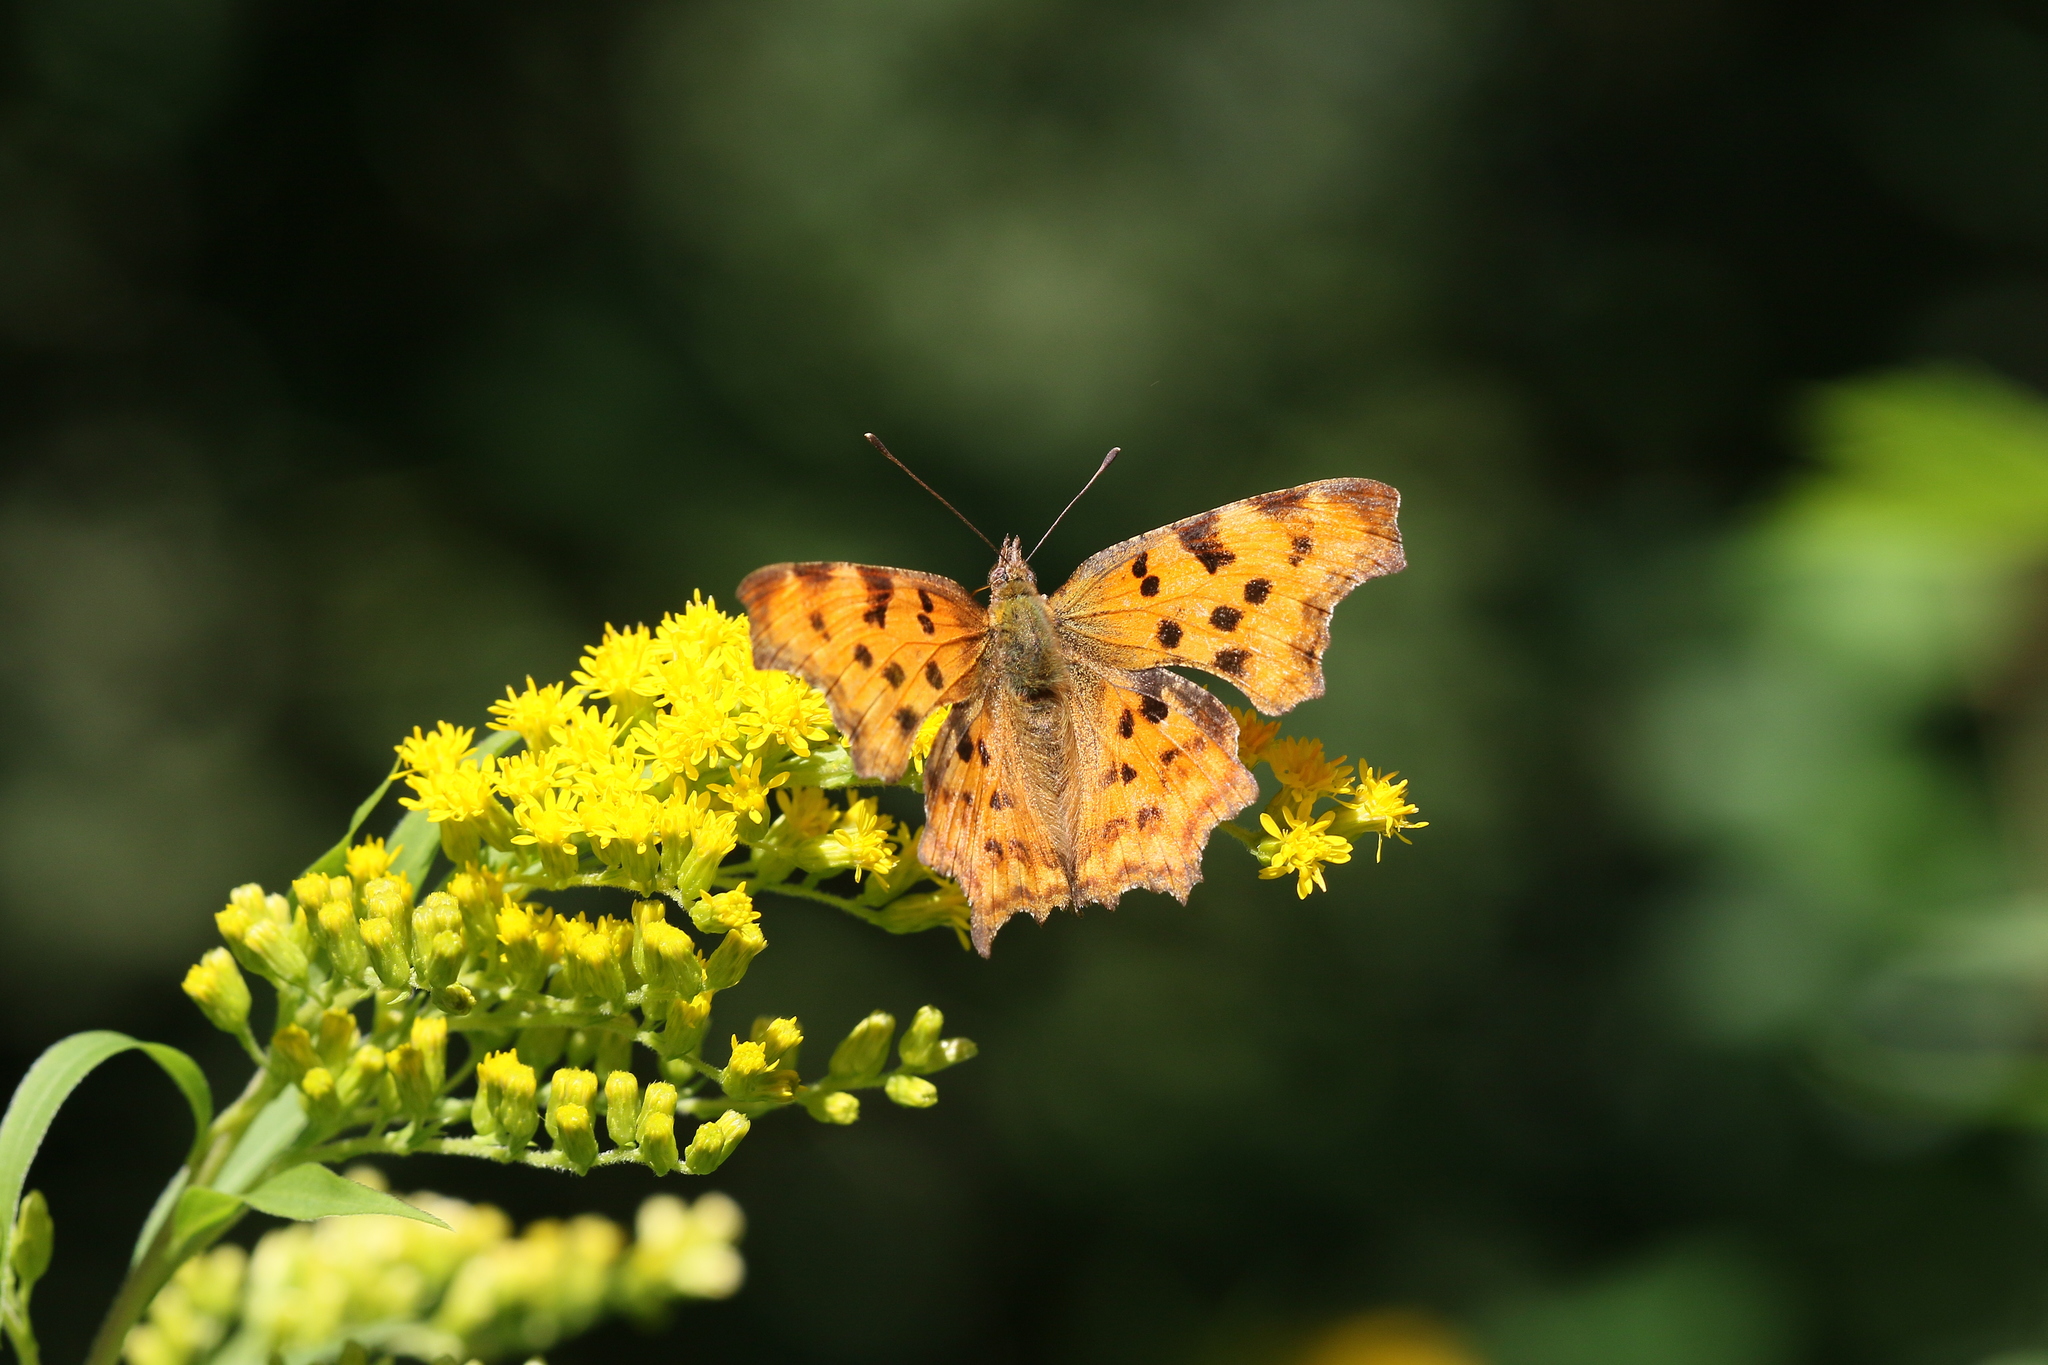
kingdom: Animalia
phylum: Arthropoda
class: Insecta
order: Lepidoptera
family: Nymphalidae
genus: Polygonia
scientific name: Polygonia c-album
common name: Comma
